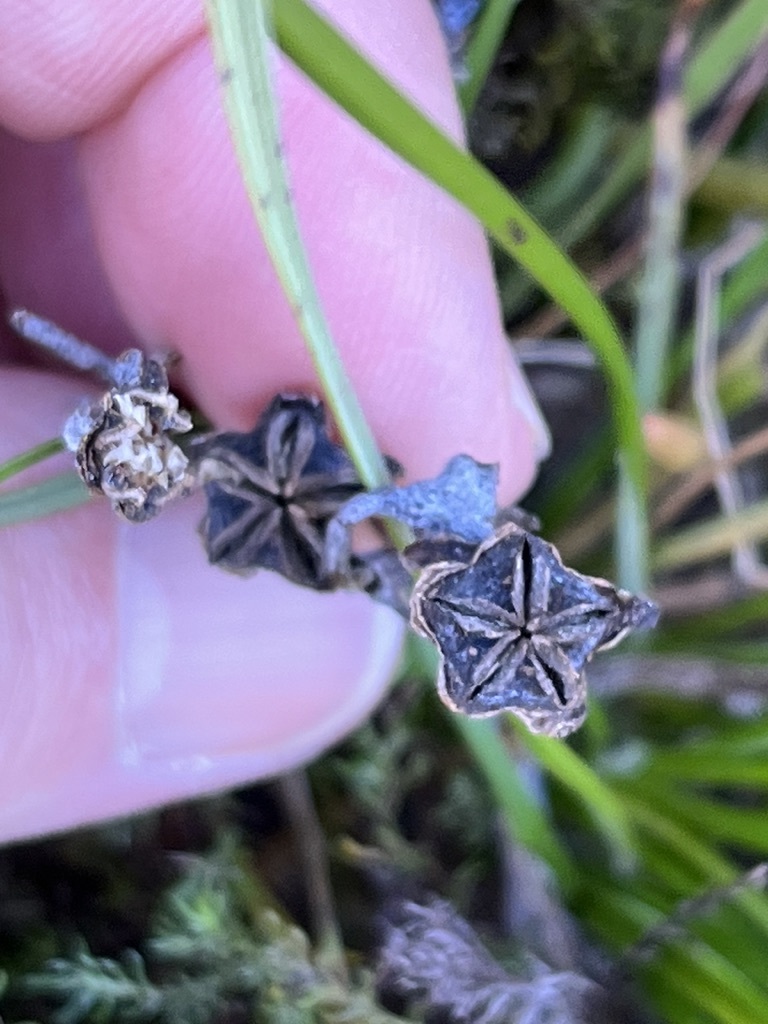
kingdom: Plantae
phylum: Tracheophyta
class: Magnoliopsida
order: Caryophyllales
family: Aizoaceae
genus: Lampranthus
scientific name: Lampranthus fergusoniae
